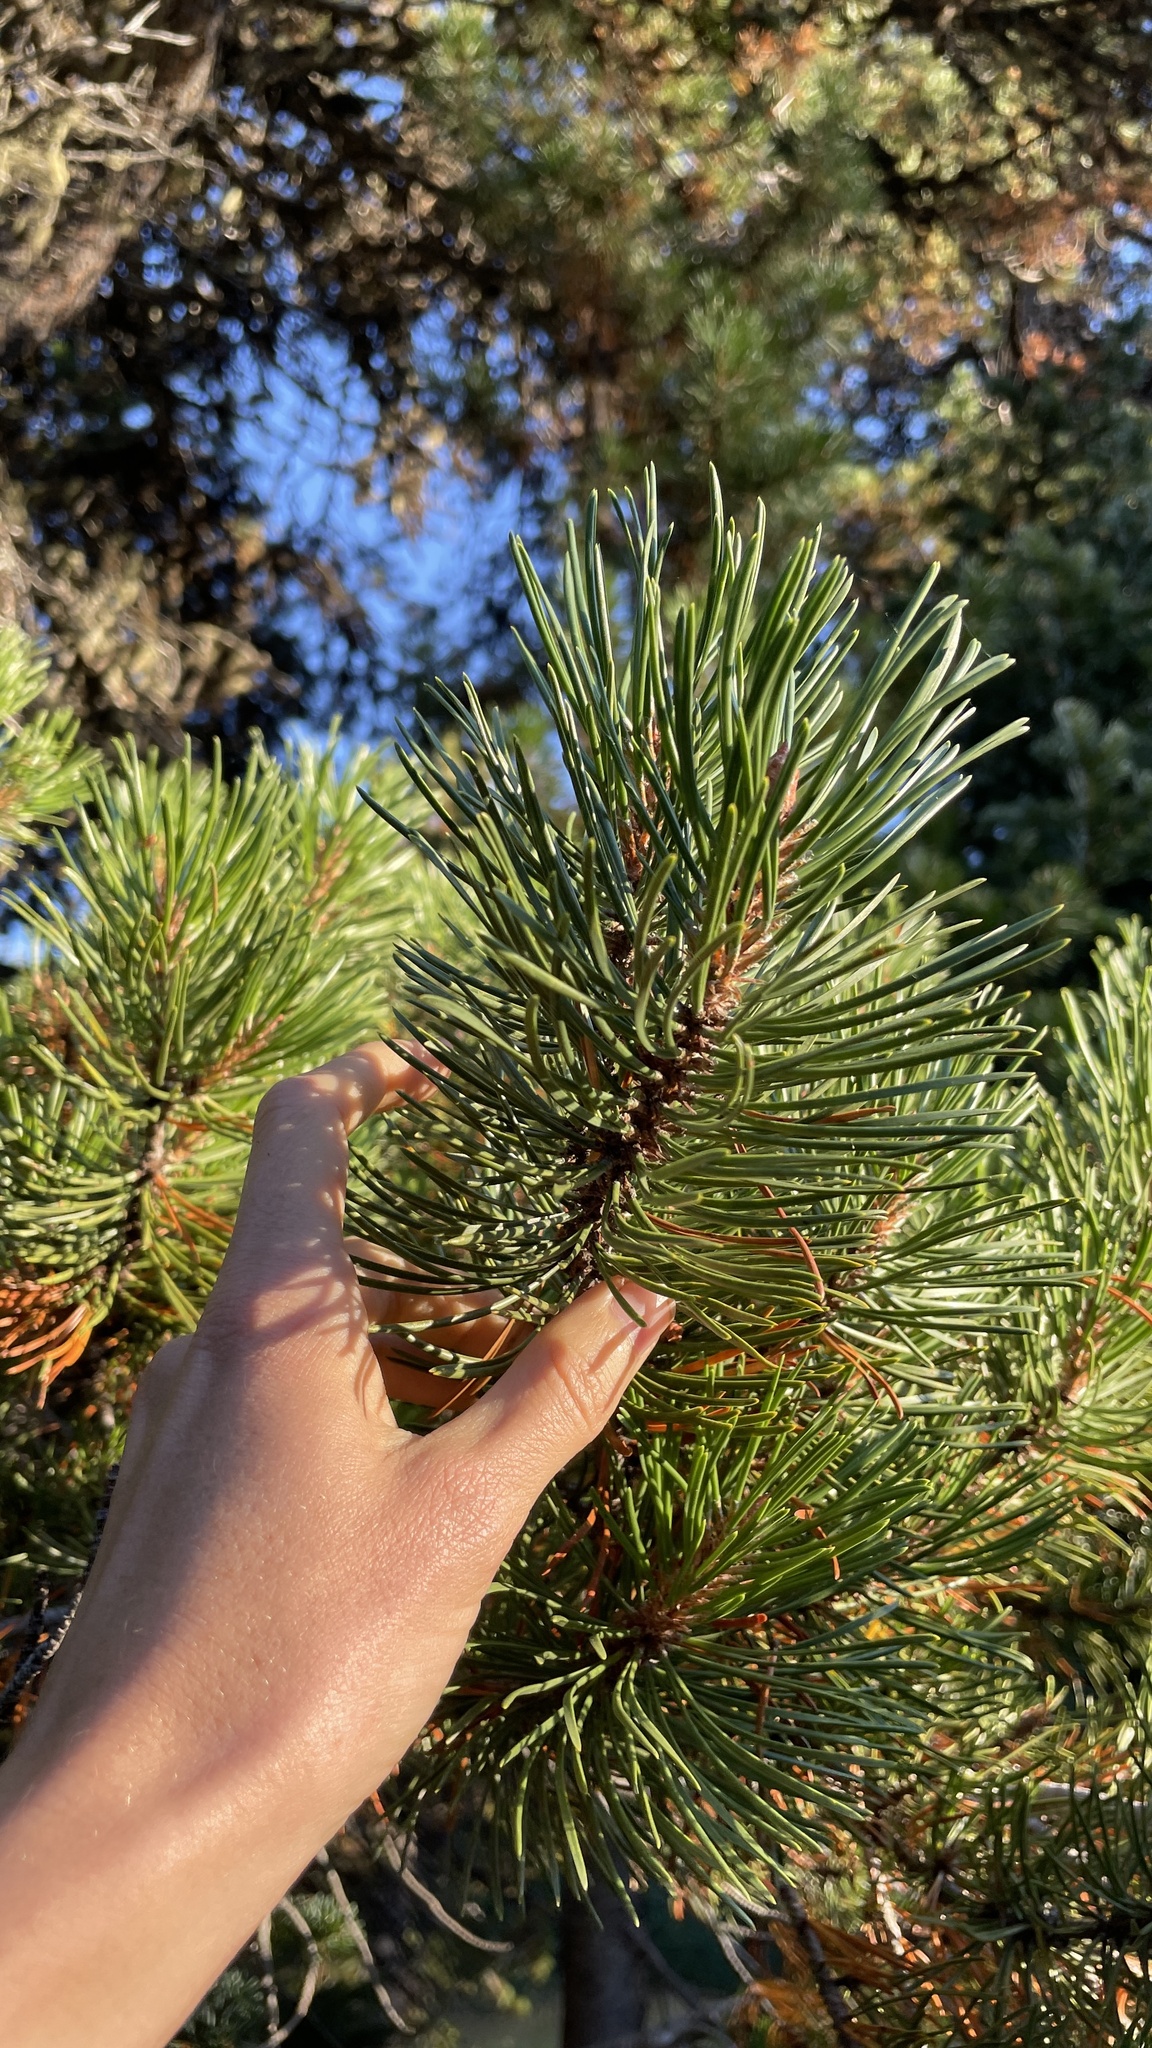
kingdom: Plantae
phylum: Tracheophyta
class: Pinopsida
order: Pinales
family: Pinaceae
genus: Pinus
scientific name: Pinus contorta
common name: Lodgepole pine
